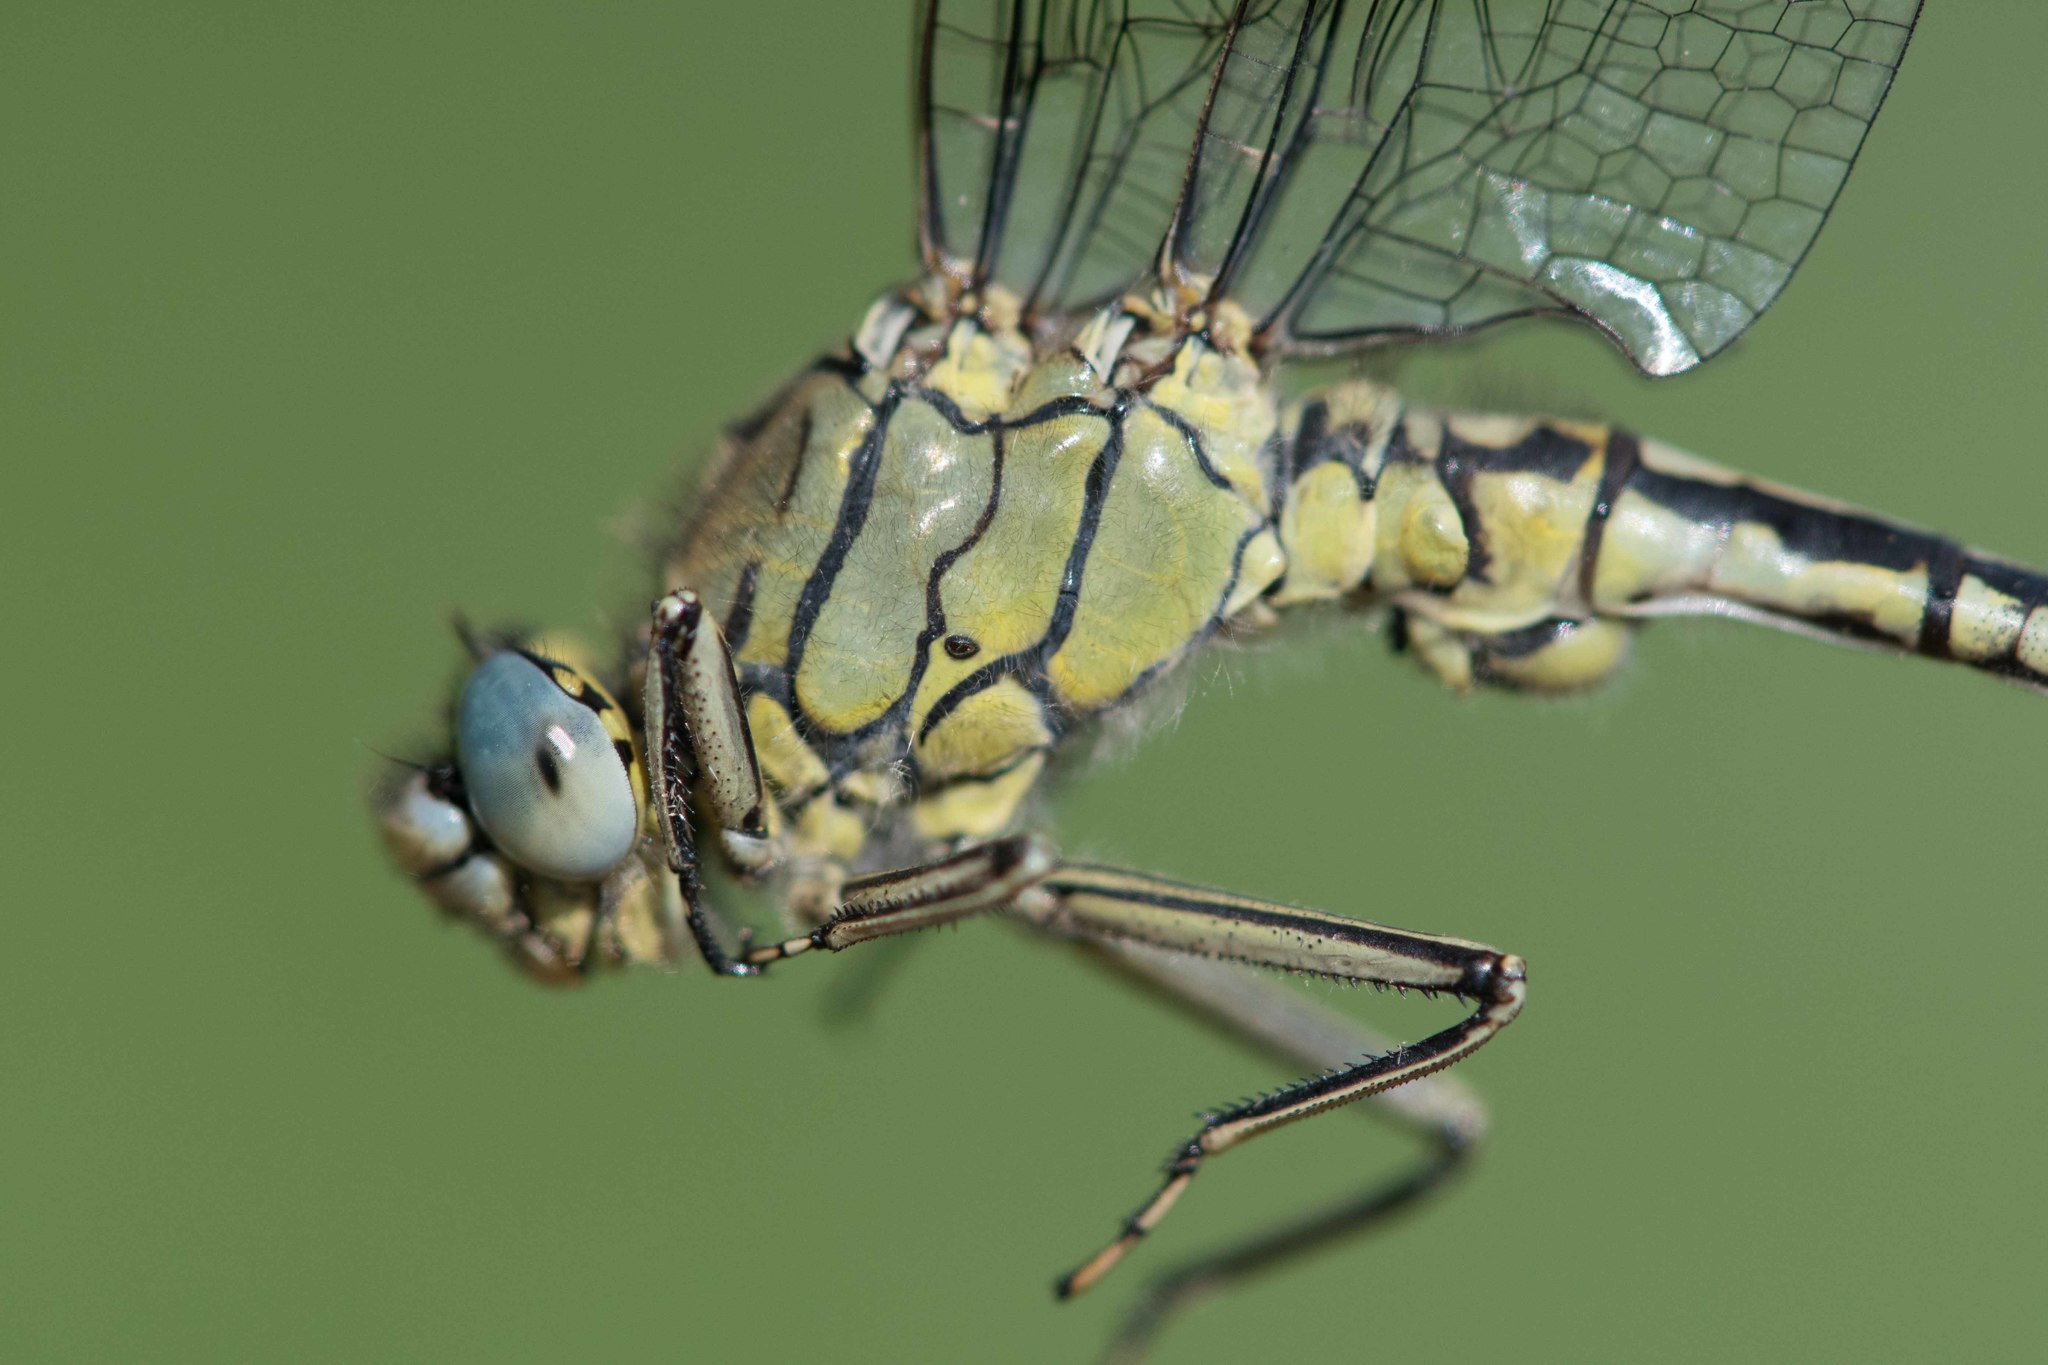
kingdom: Animalia
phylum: Arthropoda
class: Insecta
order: Odonata
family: Gomphidae
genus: Gomphus
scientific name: Gomphus pulchellus
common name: Western clubtail
